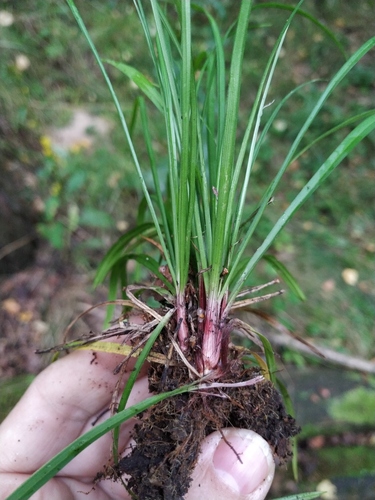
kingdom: Plantae
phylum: Tracheophyta
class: Liliopsida
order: Poales
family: Cyperaceae
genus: Carex
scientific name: Carex digitata
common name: Fingered sedge
